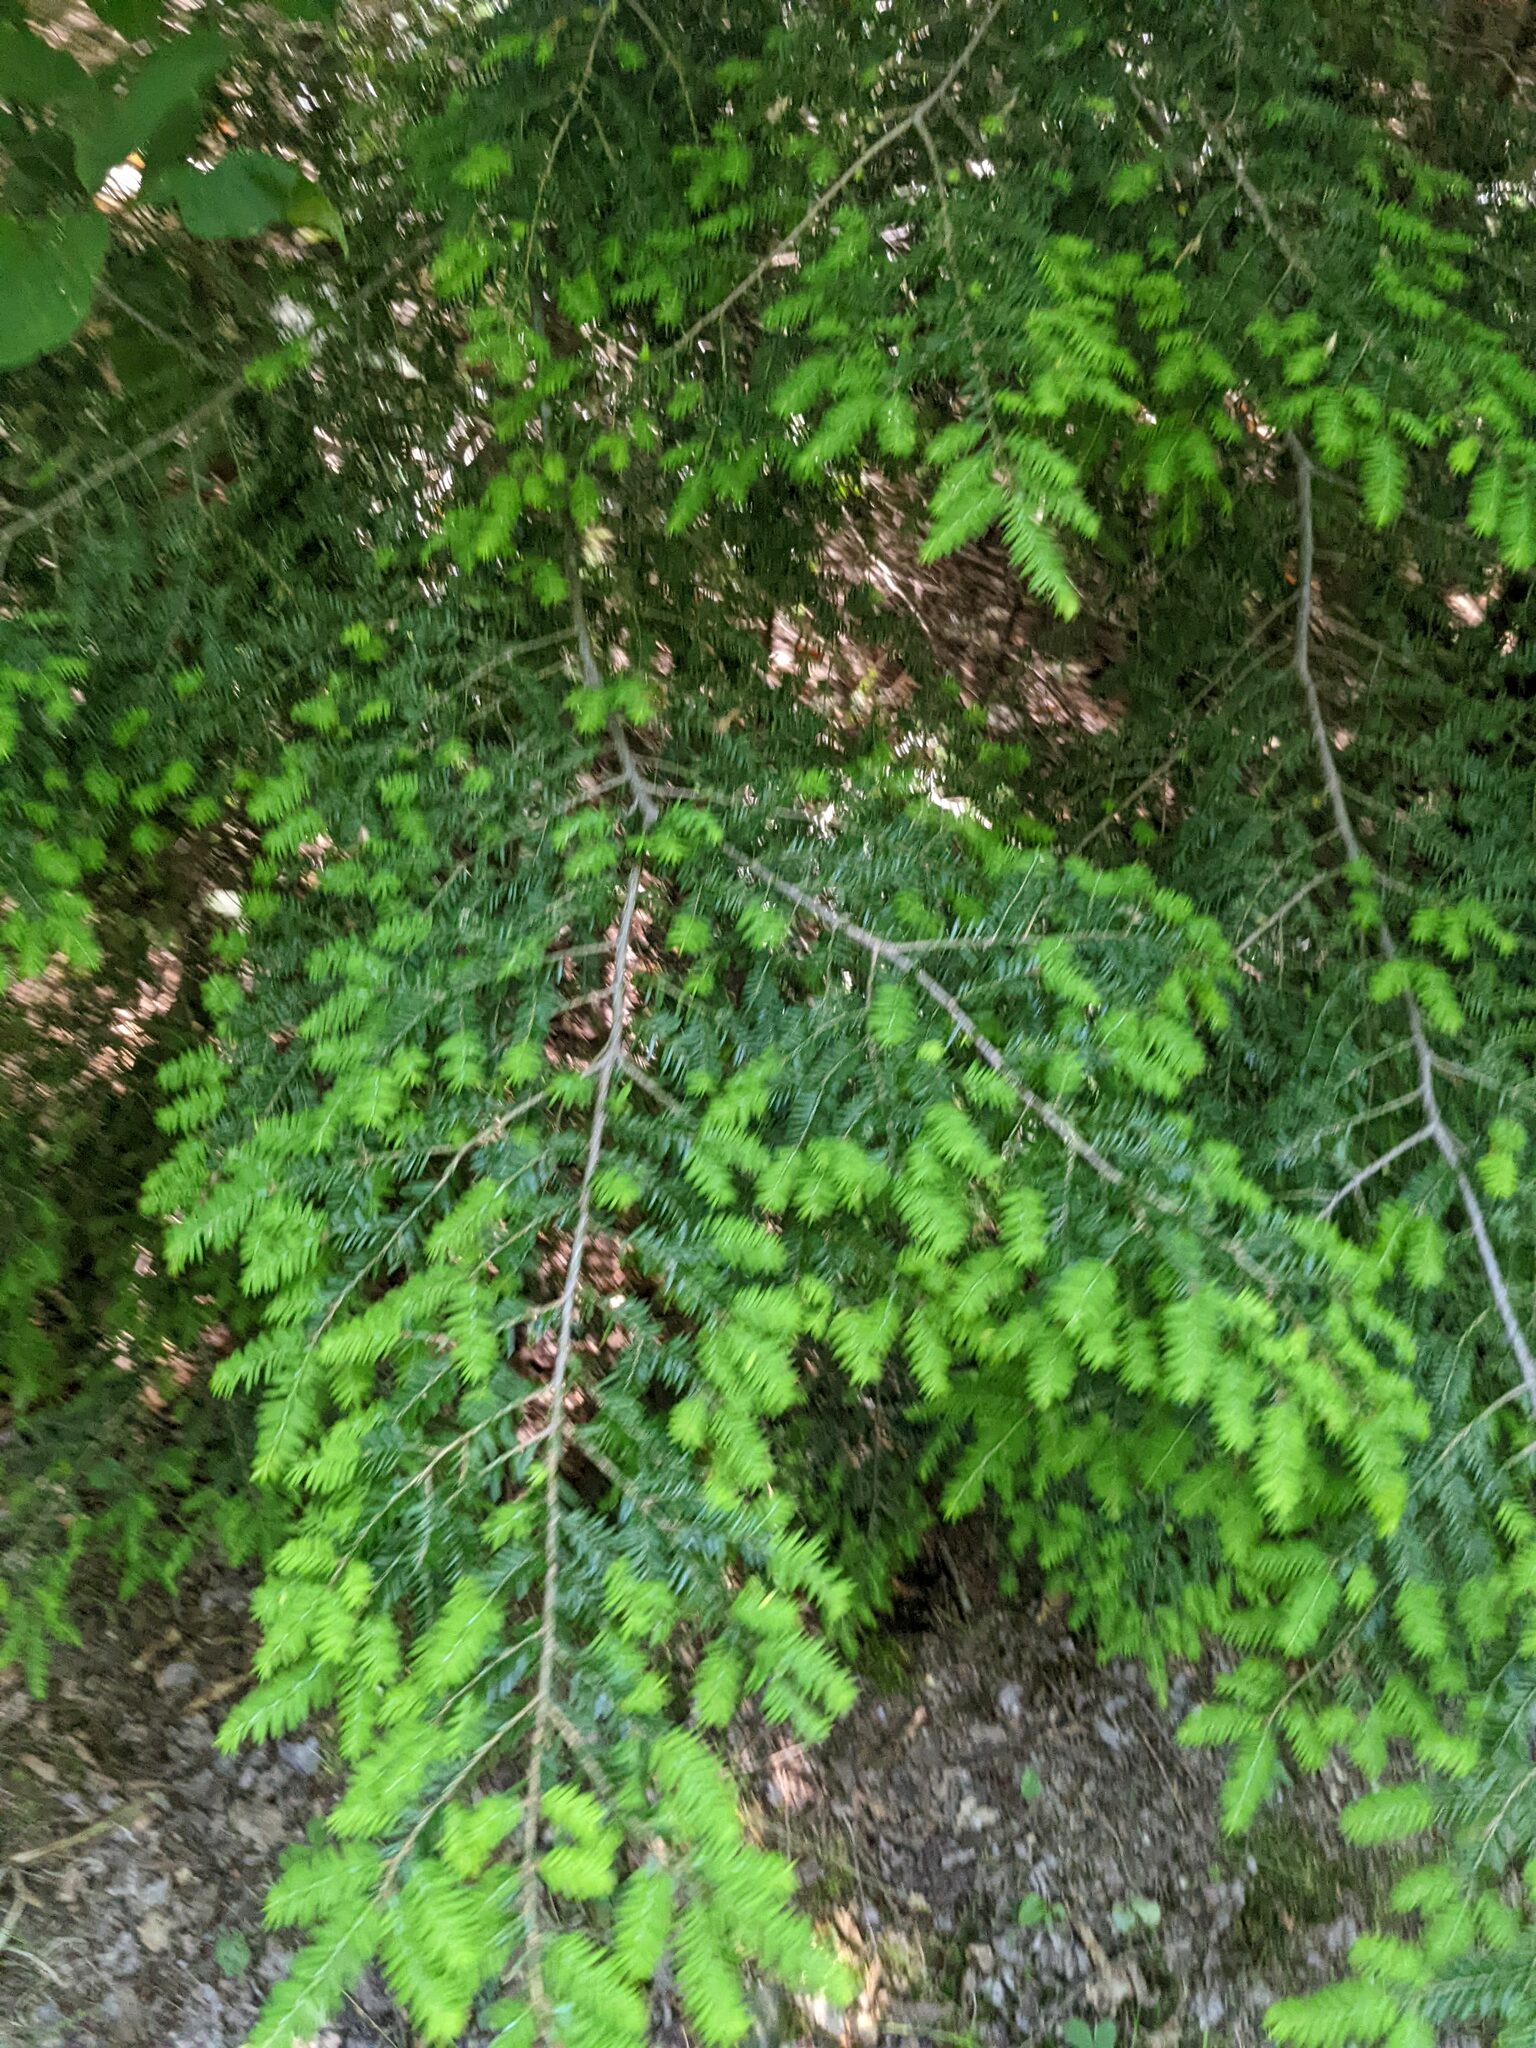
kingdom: Plantae
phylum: Tracheophyta
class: Pinopsida
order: Pinales
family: Pinaceae
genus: Tsuga
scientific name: Tsuga canadensis
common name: Eastern hemlock
